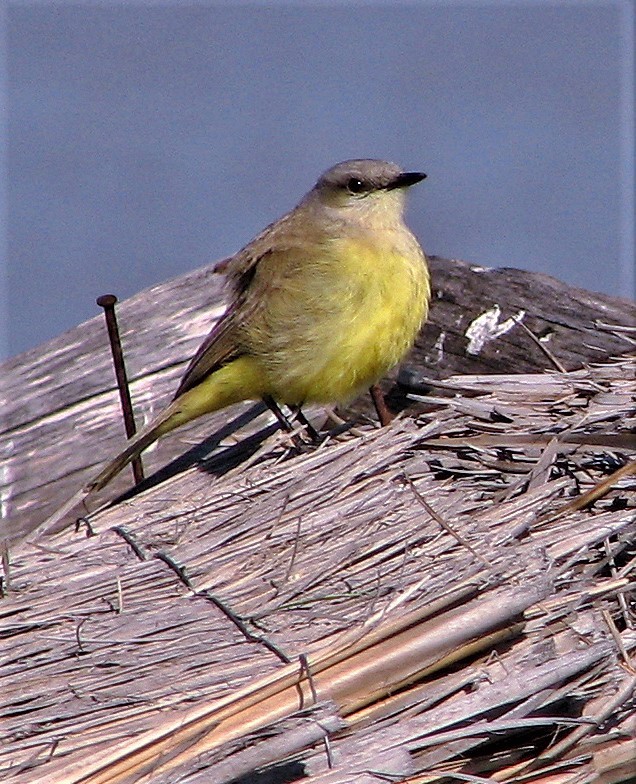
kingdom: Animalia
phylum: Chordata
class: Aves
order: Passeriformes
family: Tyrannidae
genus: Machetornis
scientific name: Machetornis rixosa
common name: Cattle tyrant
